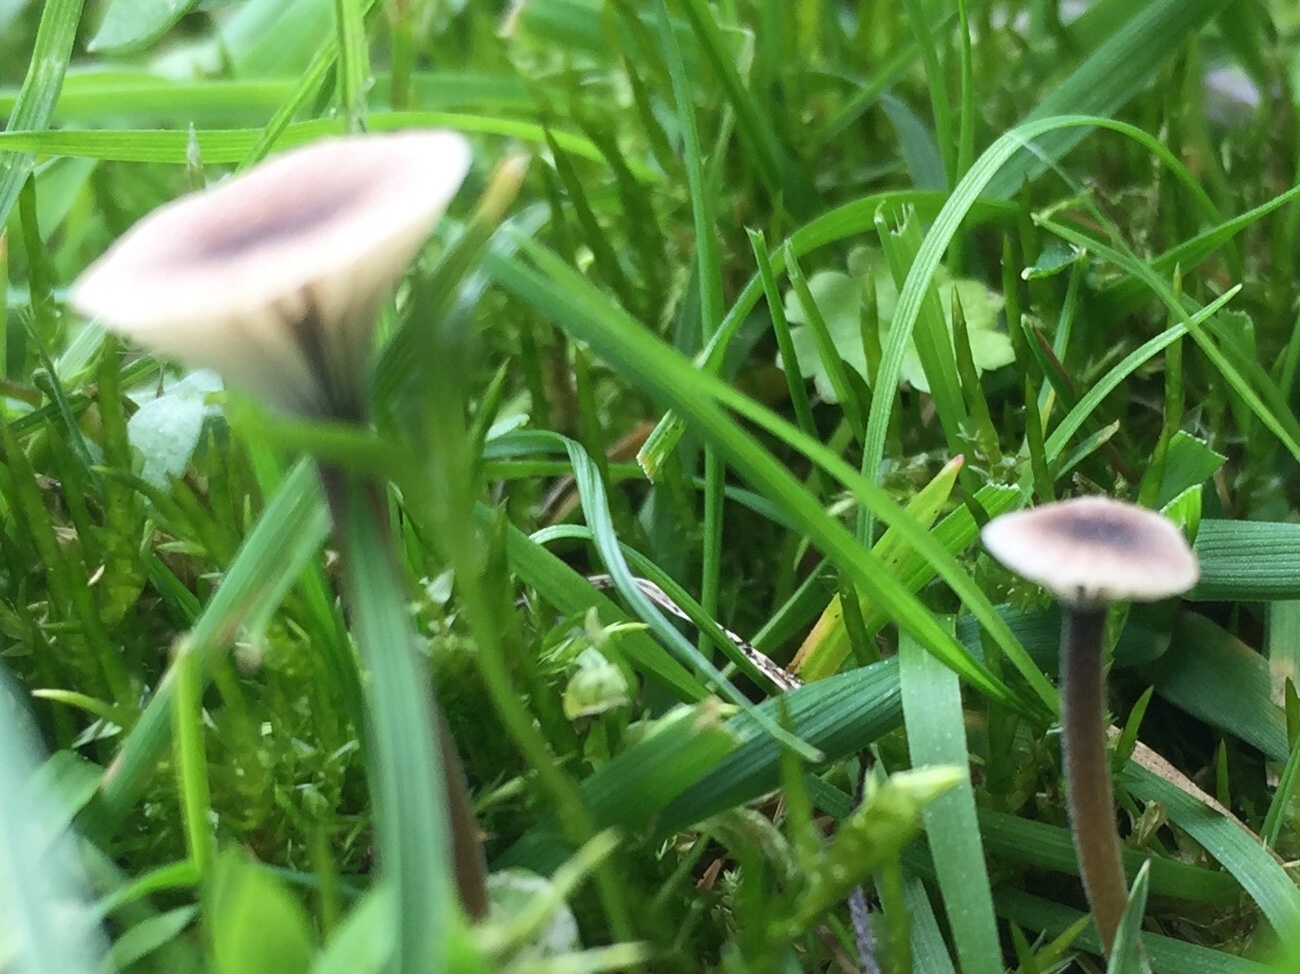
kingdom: Fungi
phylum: Basidiomycota
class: Agaricomycetes
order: Hymenochaetales
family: Rickenellaceae
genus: Rickenella
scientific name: Rickenella swartzii
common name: Collared mosscap
